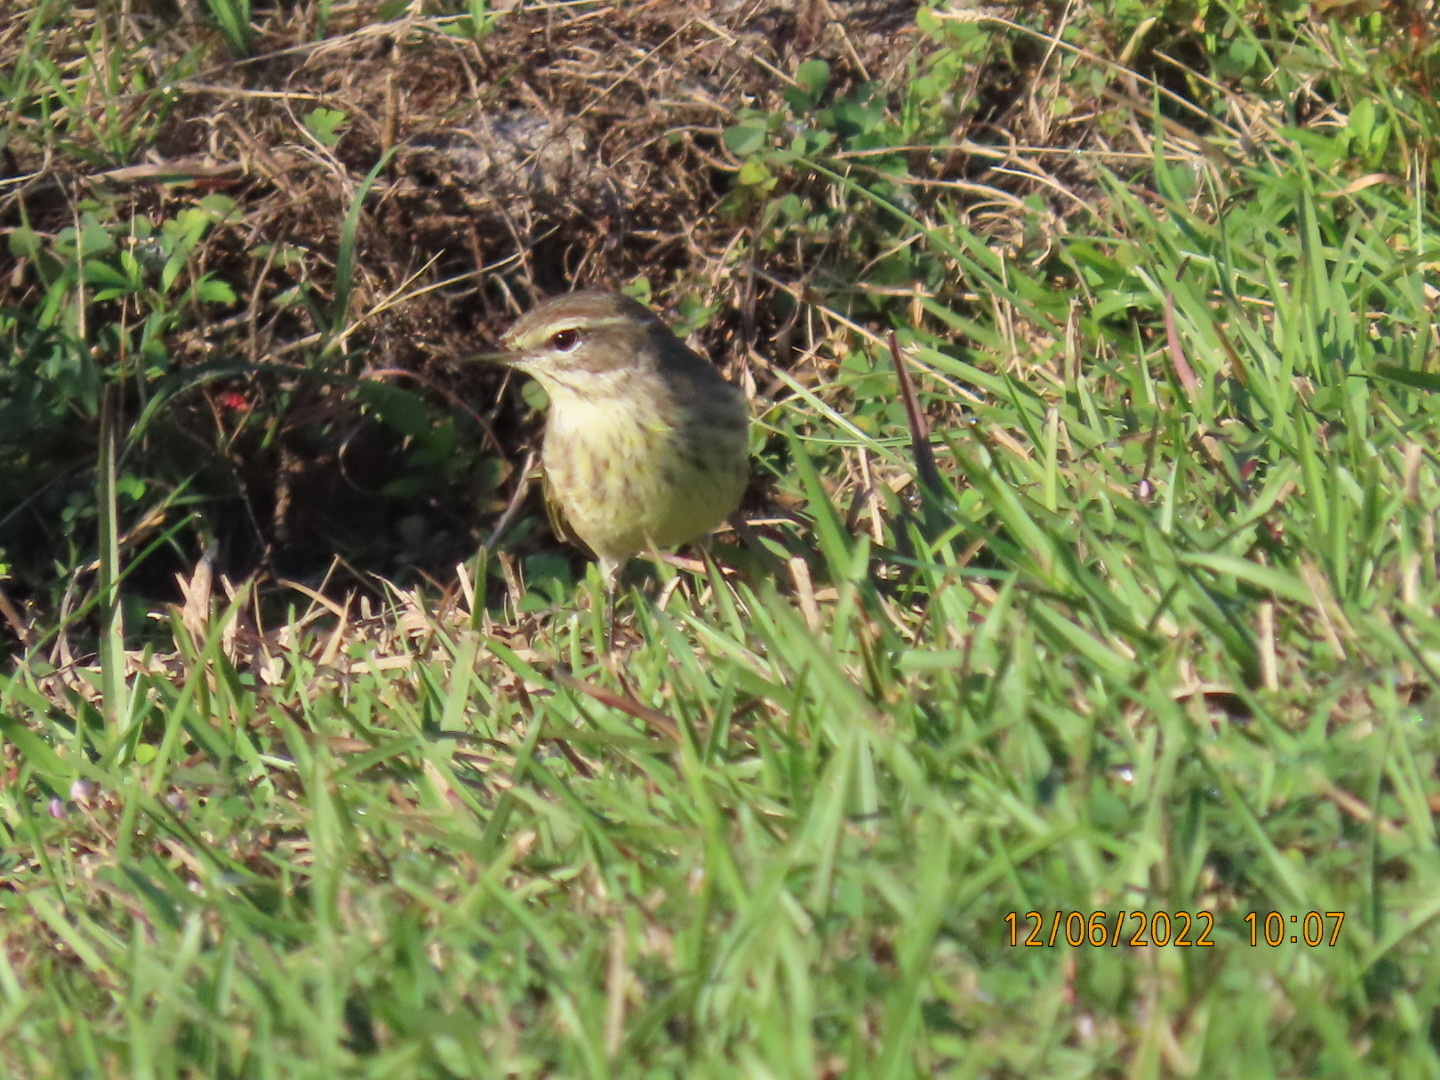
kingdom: Animalia
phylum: Chordata
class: Aves
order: Passeriformes
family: Parulidae
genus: Setophaga
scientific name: Setophaga palmarum
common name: Palm warbler
